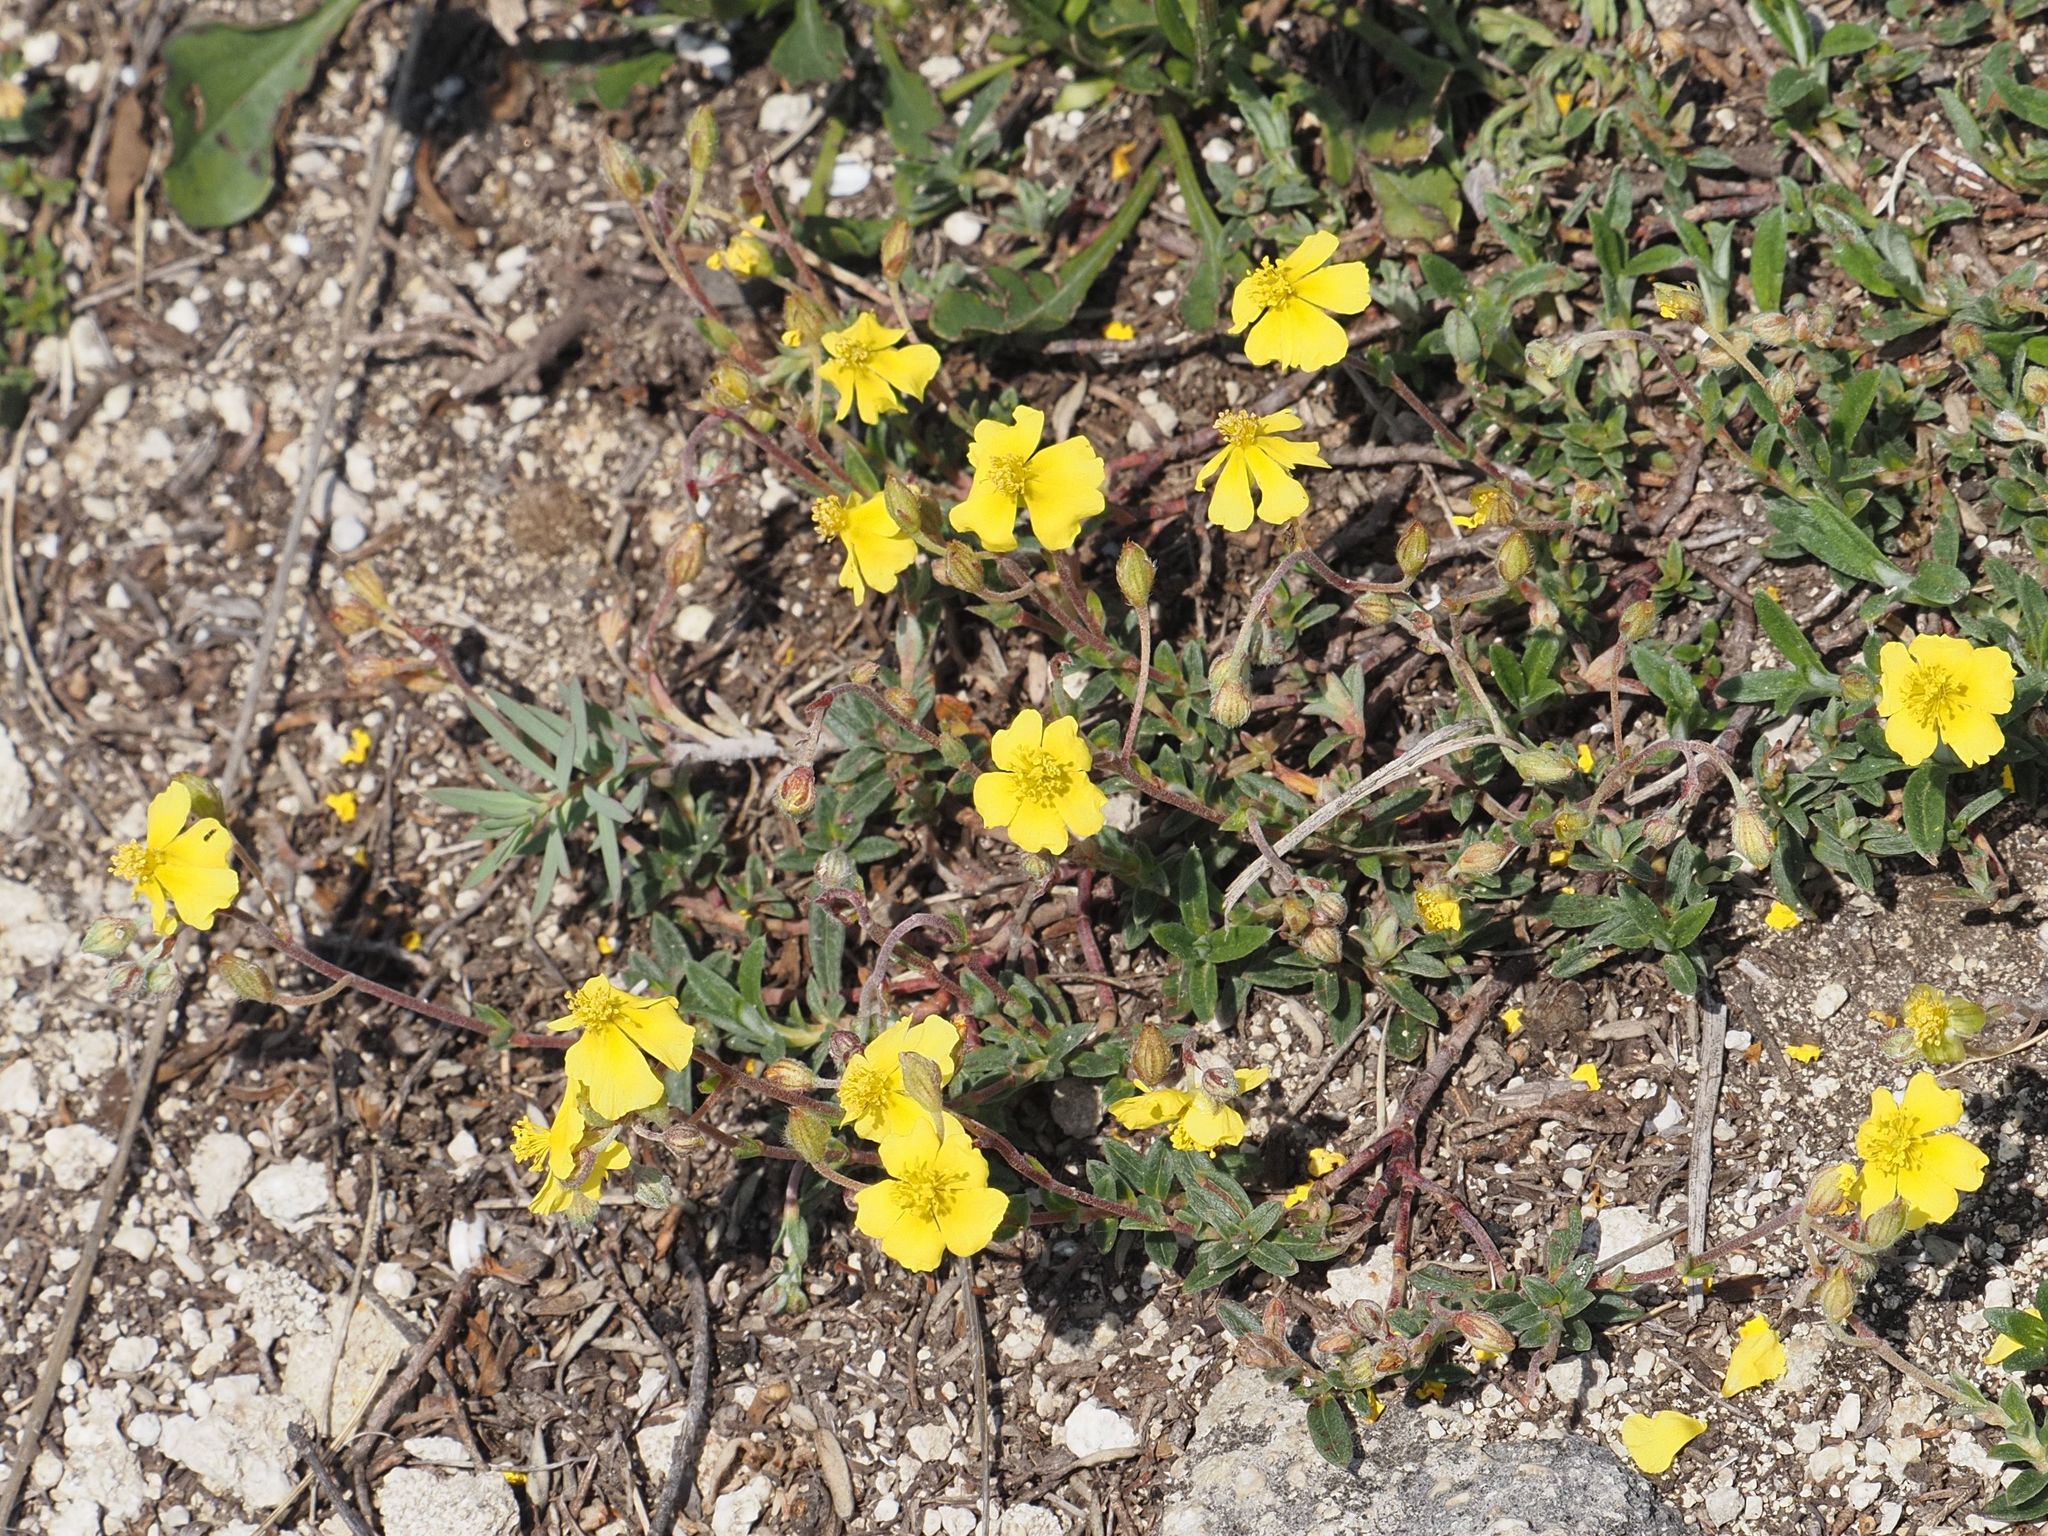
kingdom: Plantae
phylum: Tracheophyta
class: Magnoliopsida
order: Malvales
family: Cistaceae
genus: Helianthemum
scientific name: Helianthemum canum
